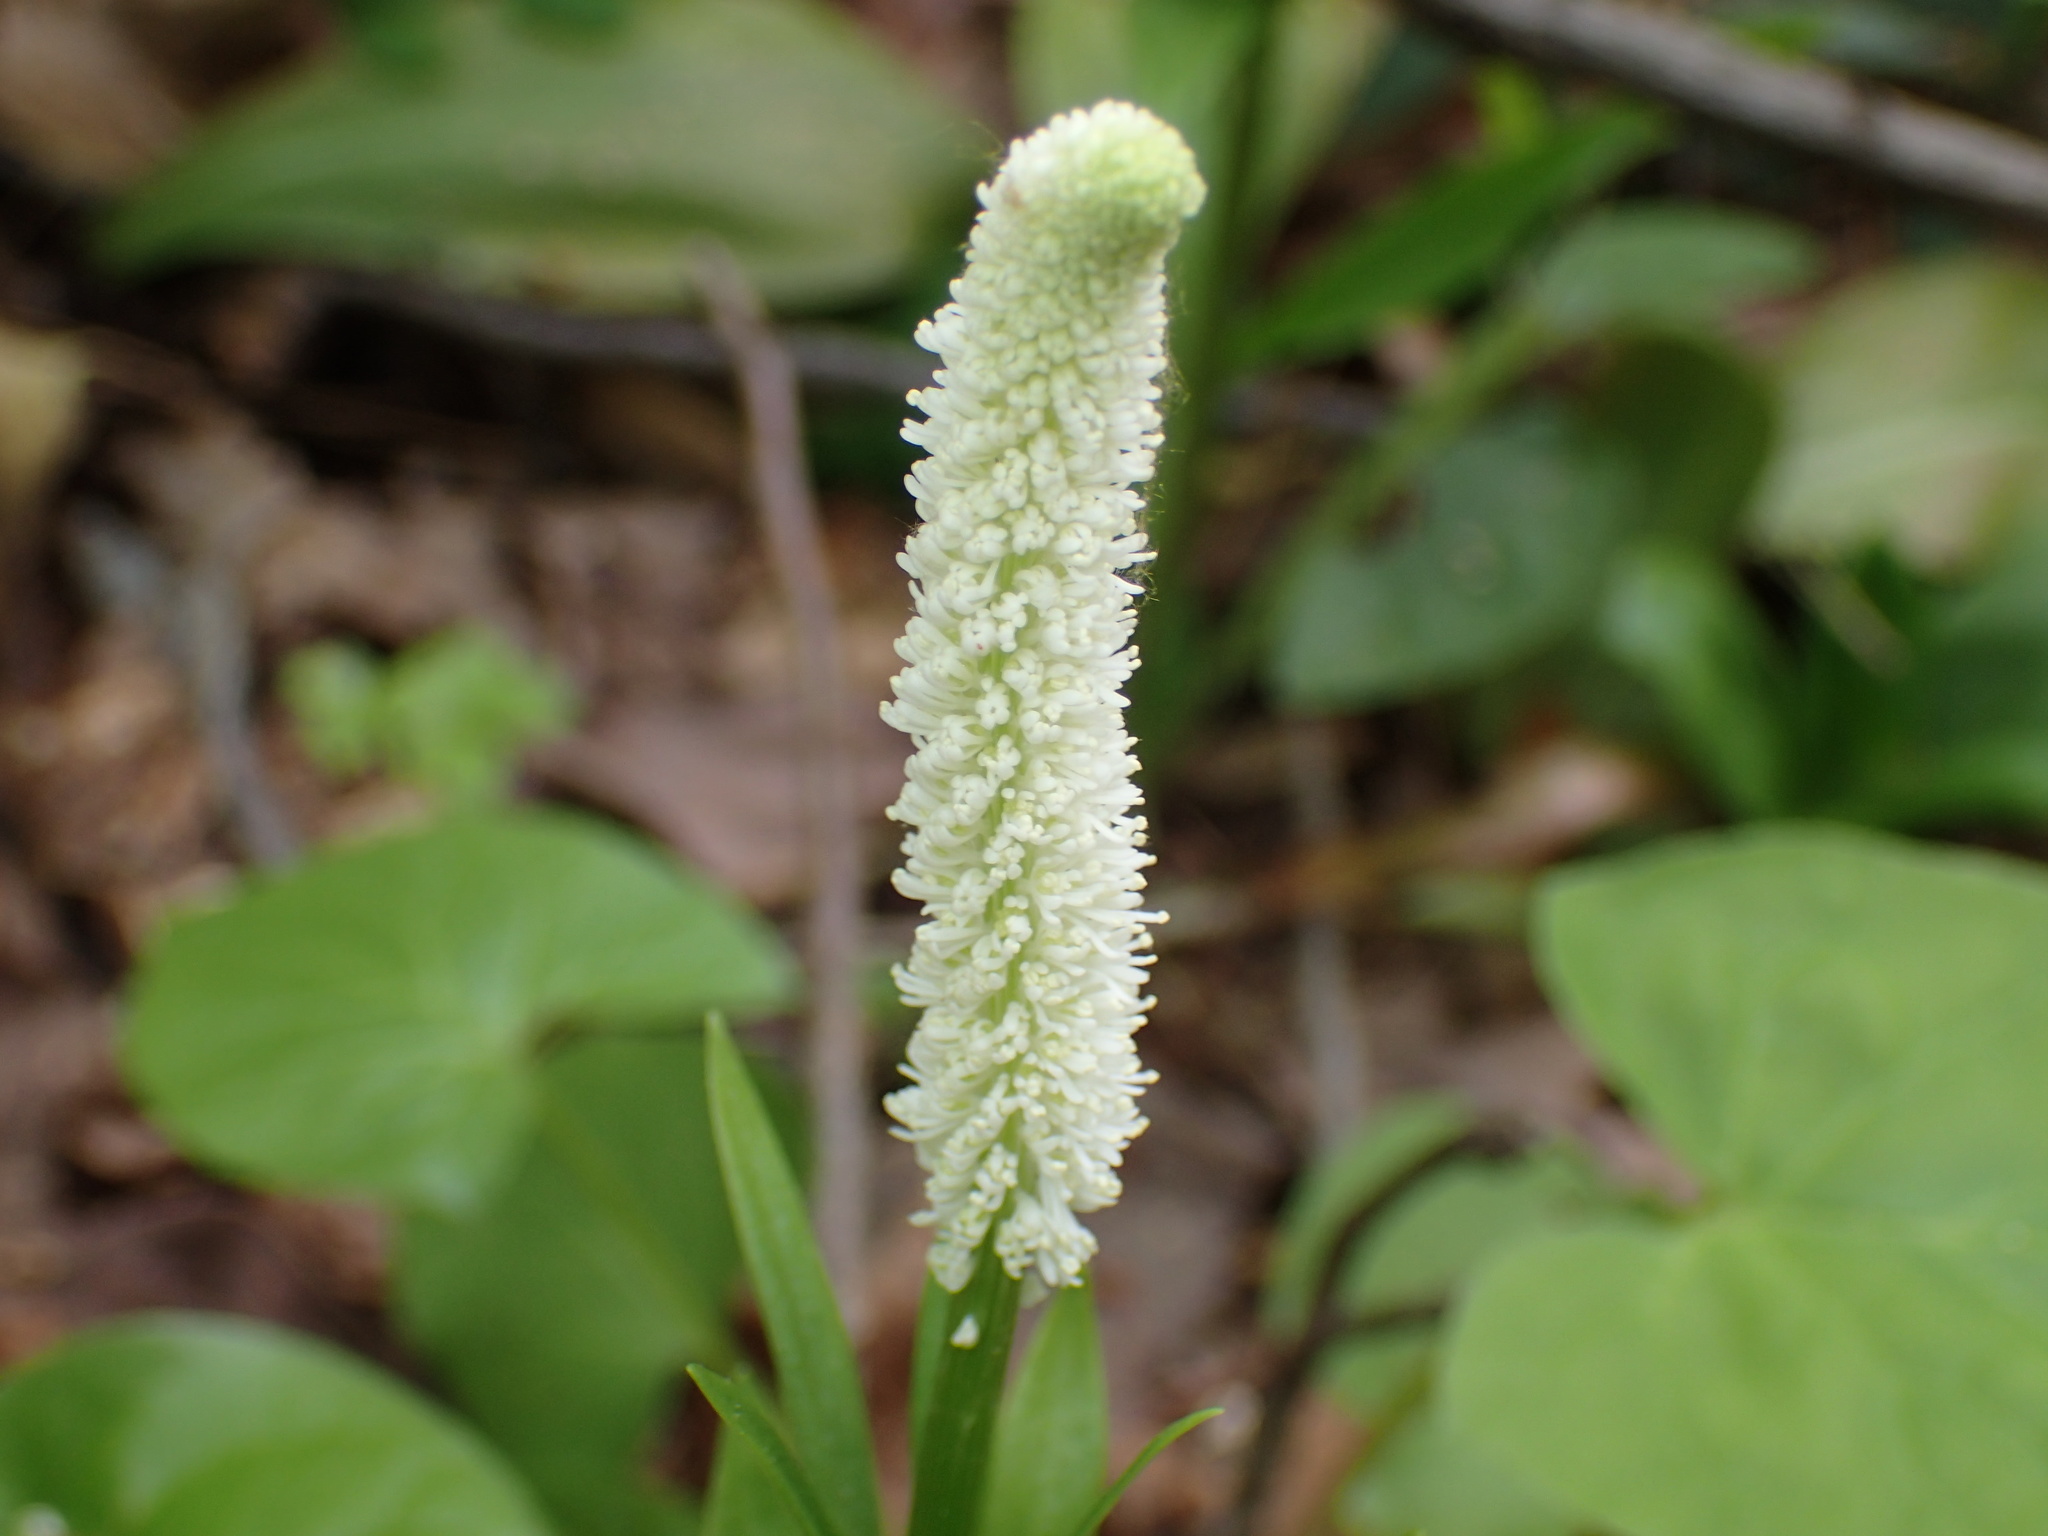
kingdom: Plantae
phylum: Tracheophyta
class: Liliopsida
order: Liliales
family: Melanthiaceae
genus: Chamaelirium
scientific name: Chamaelirium luteum
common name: Fairy-wand
